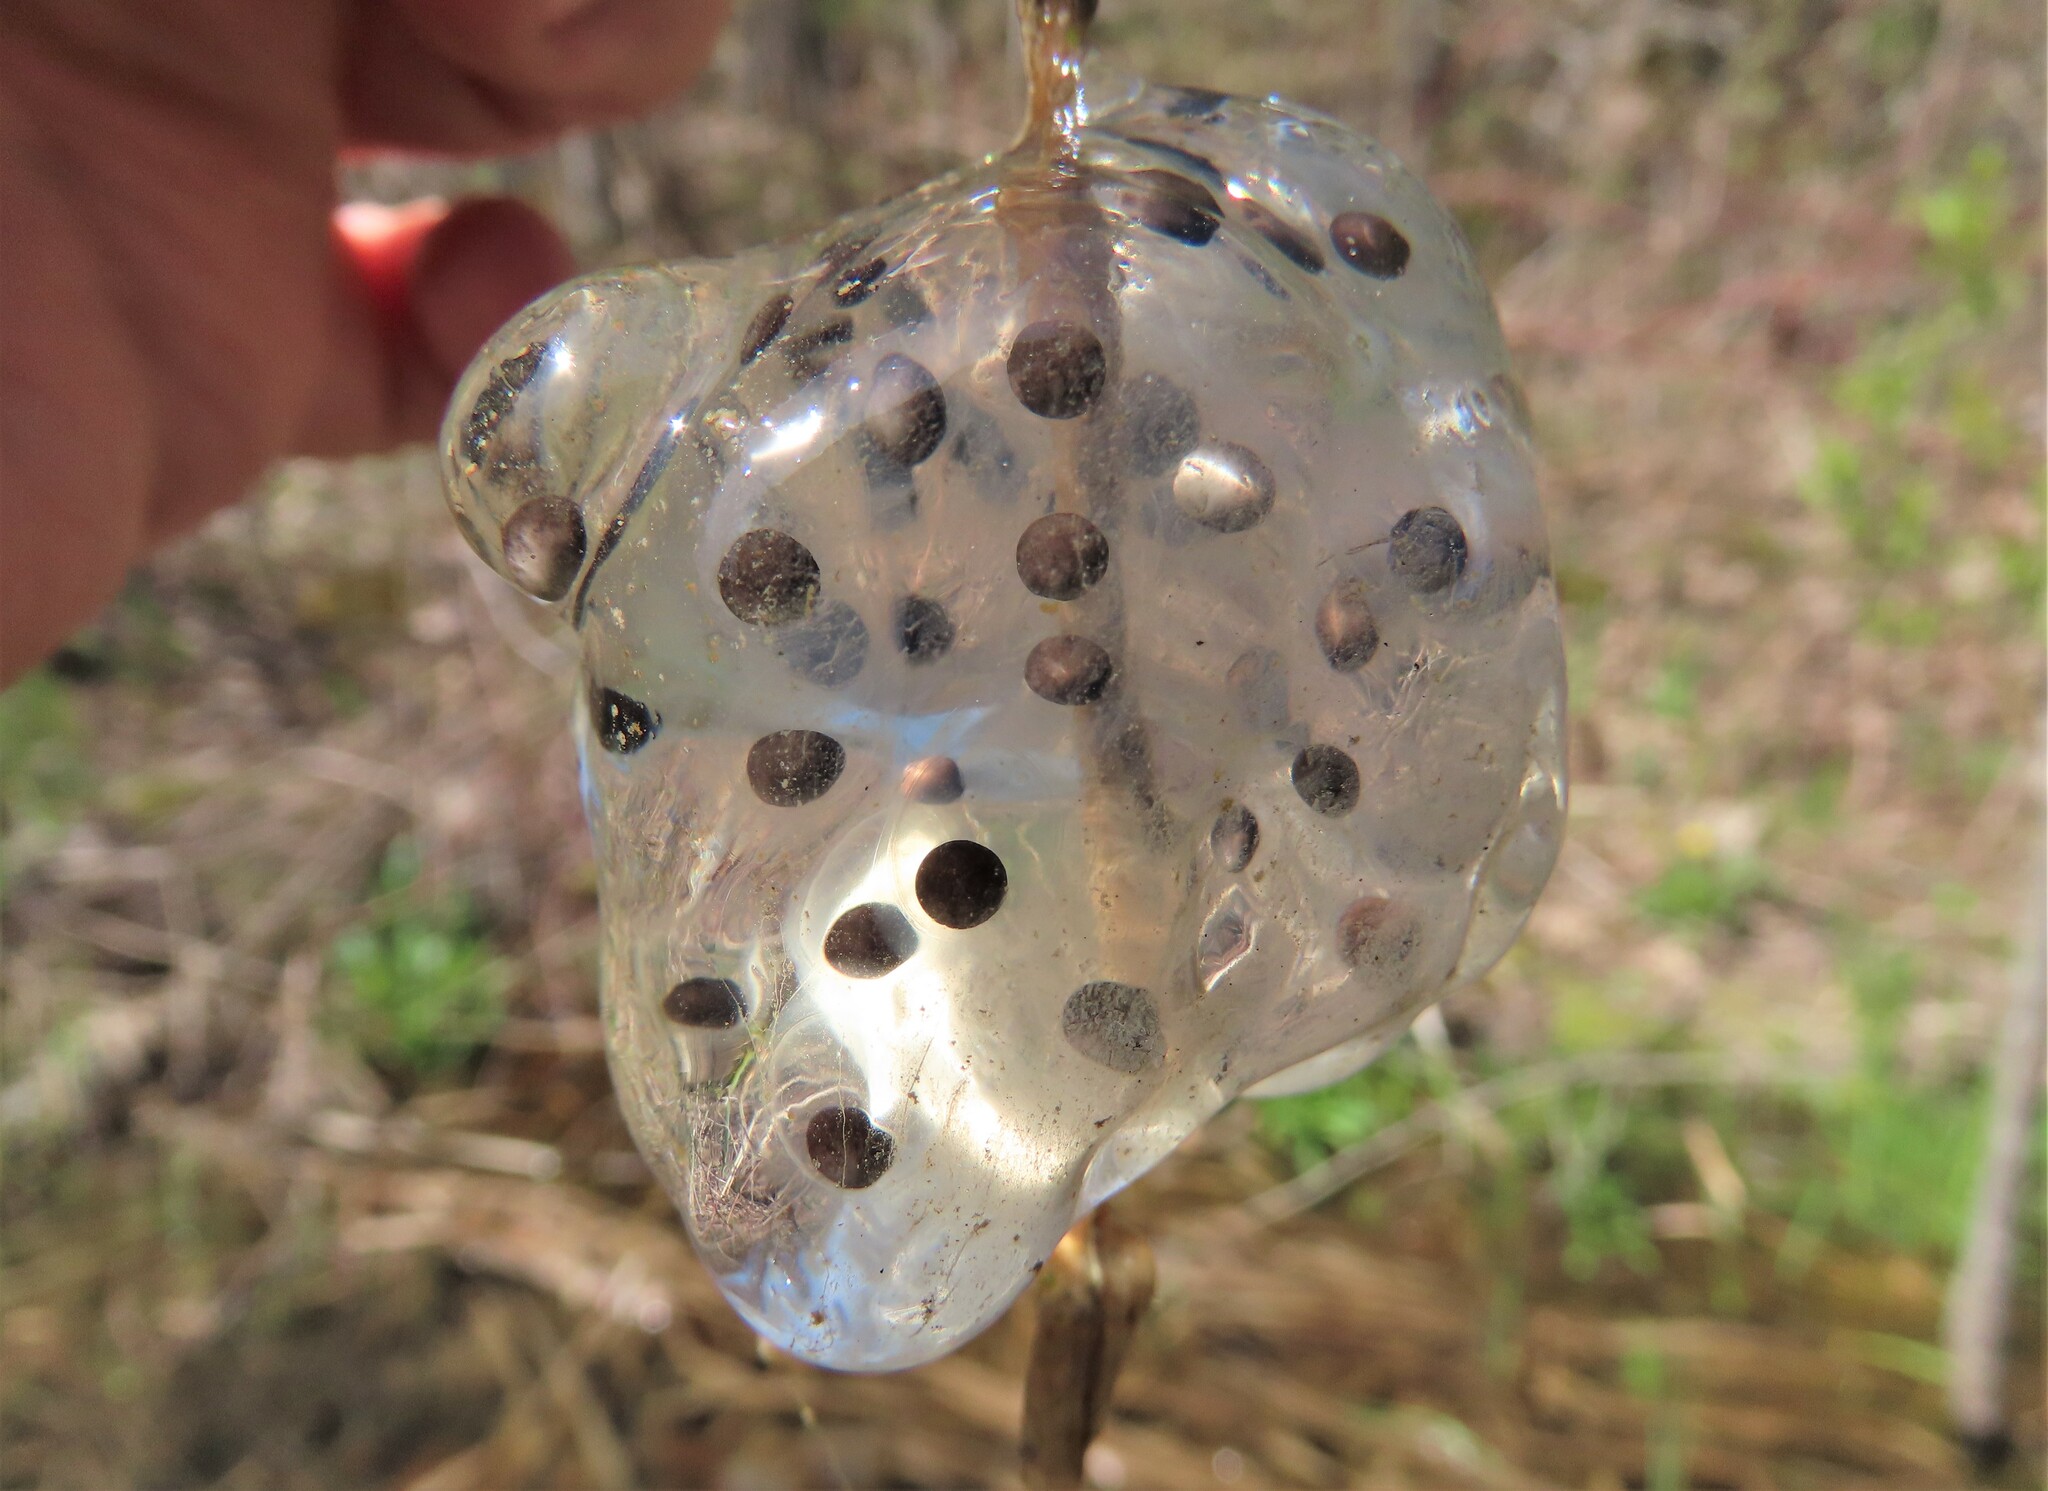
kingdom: Animalia
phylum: Chordata
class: Amphibia
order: Caudata
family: Ambystomatidae
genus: Ambystoma
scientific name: Ambystoma maculatum
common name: Spotted salamander
